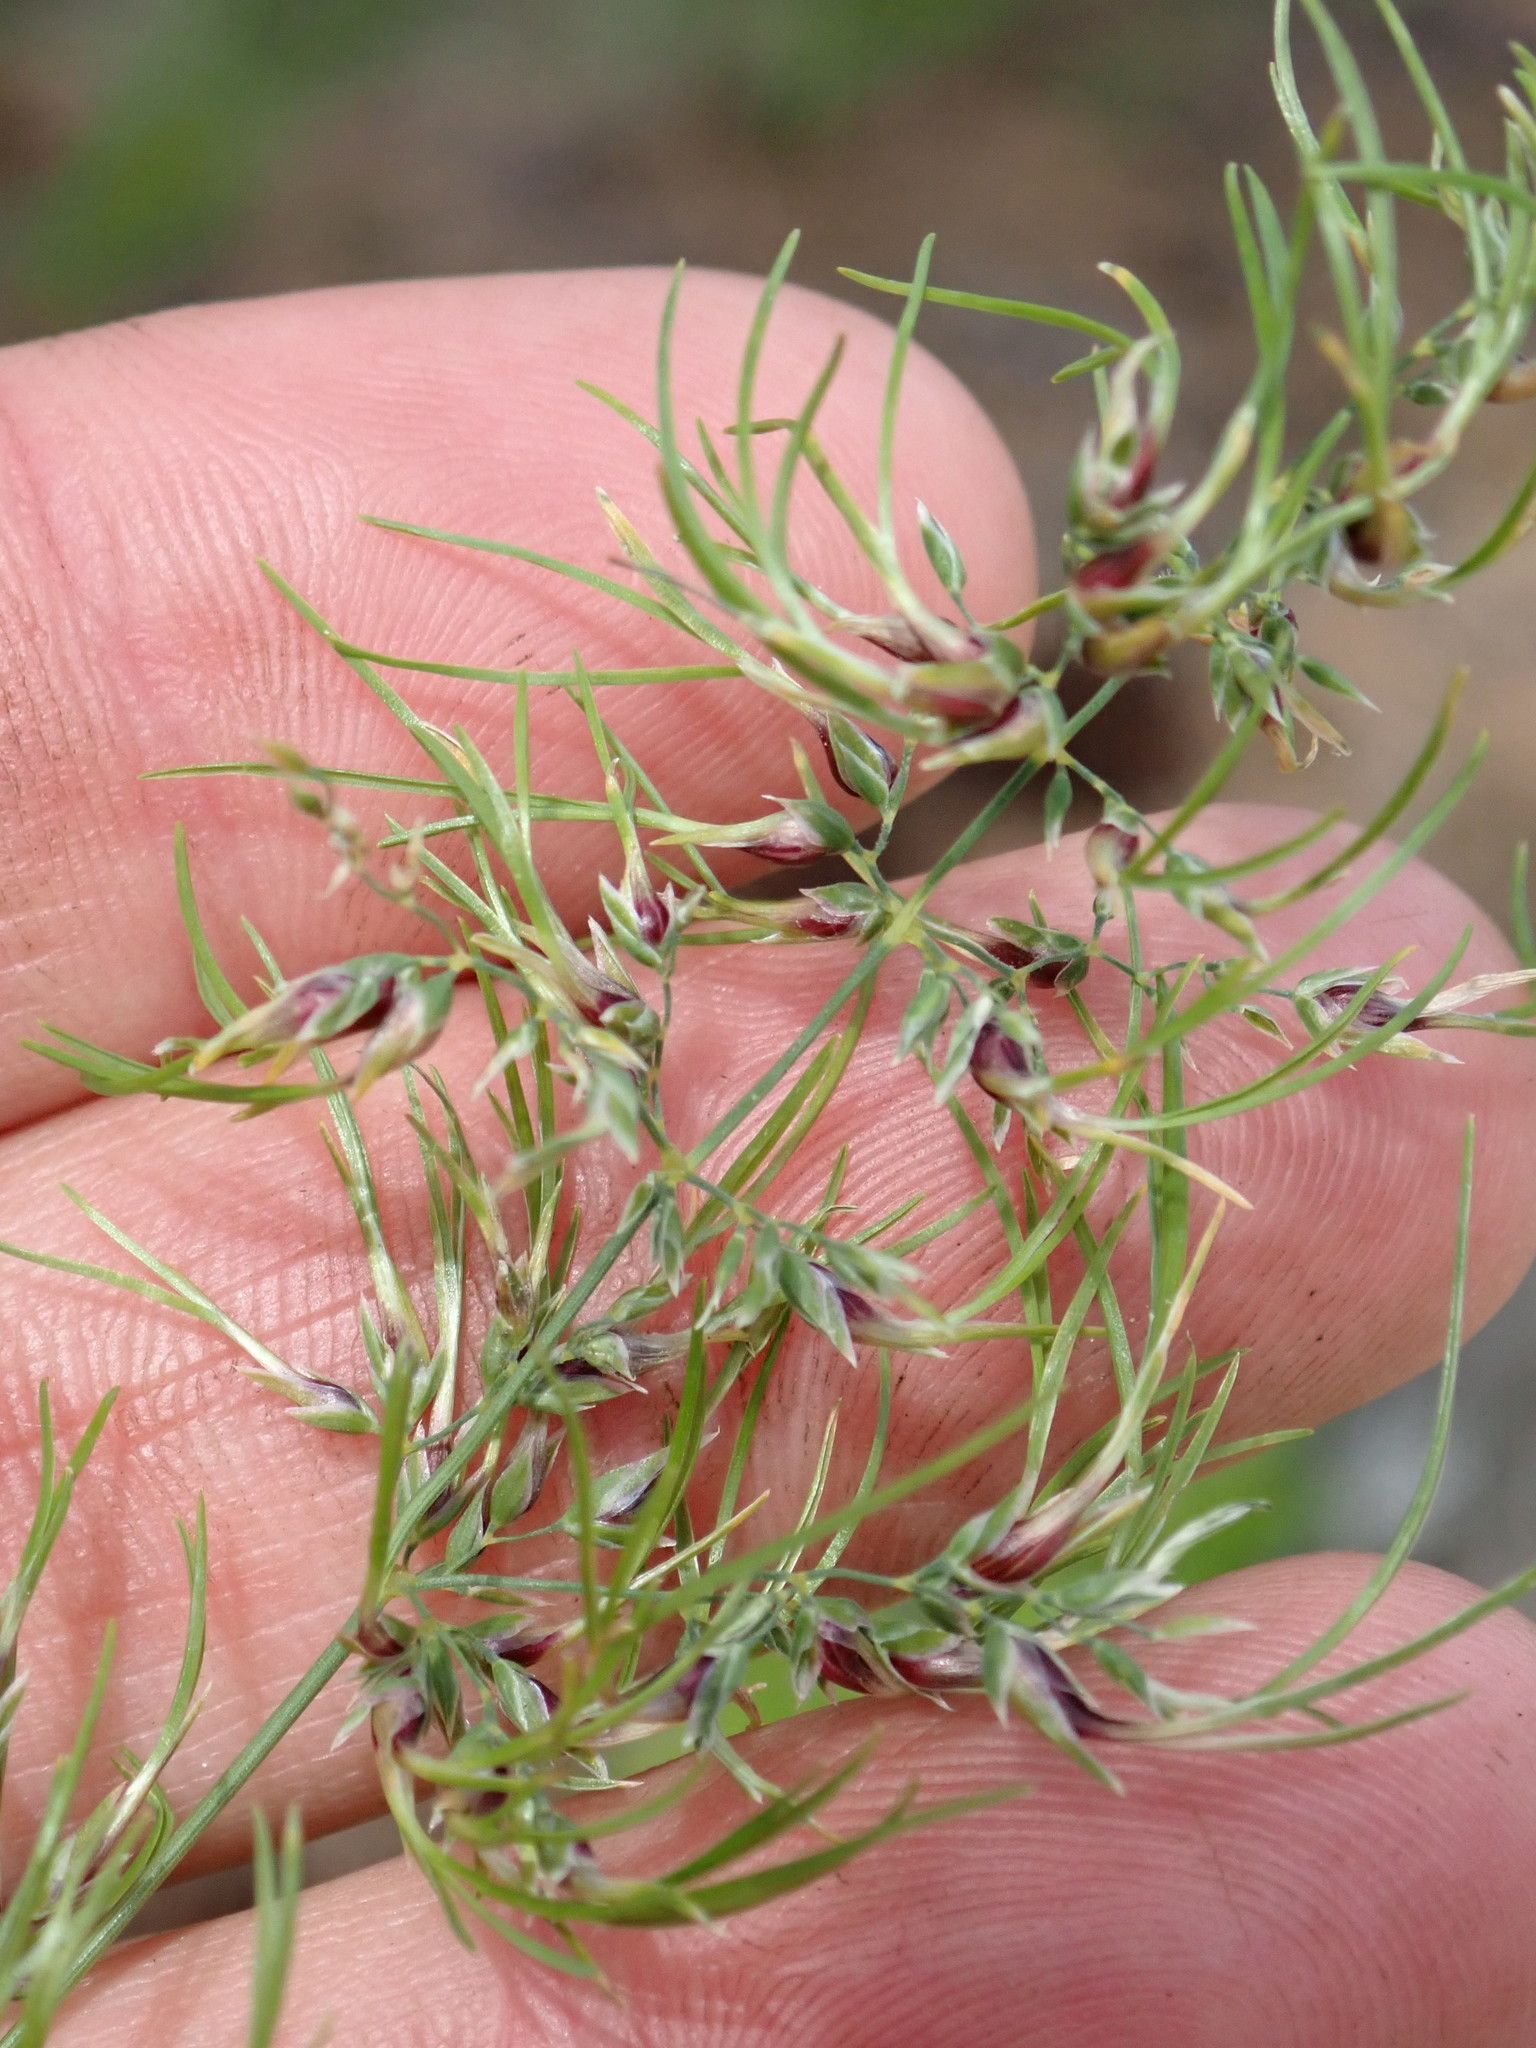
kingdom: Plantae
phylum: Tracheophyta
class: Liliopsida
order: Poales
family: Poaceae
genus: Poa
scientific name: Poa bulbosa
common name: Bulbous bluegrass
